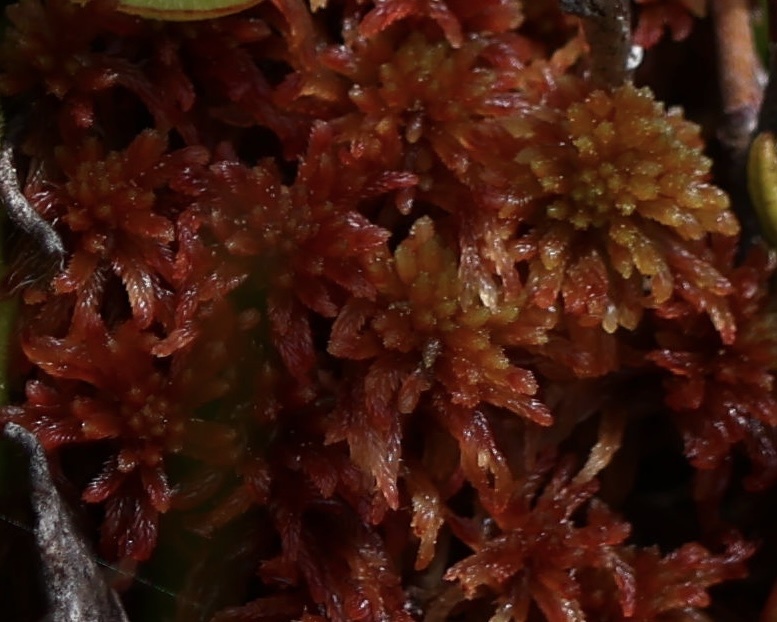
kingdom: Plantae
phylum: Bryophyta
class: Sphagnopsida
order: Sphagnales
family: Sphagnaceae
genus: Sphagnum
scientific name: Sphagnum rubellum
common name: Red peat moss
